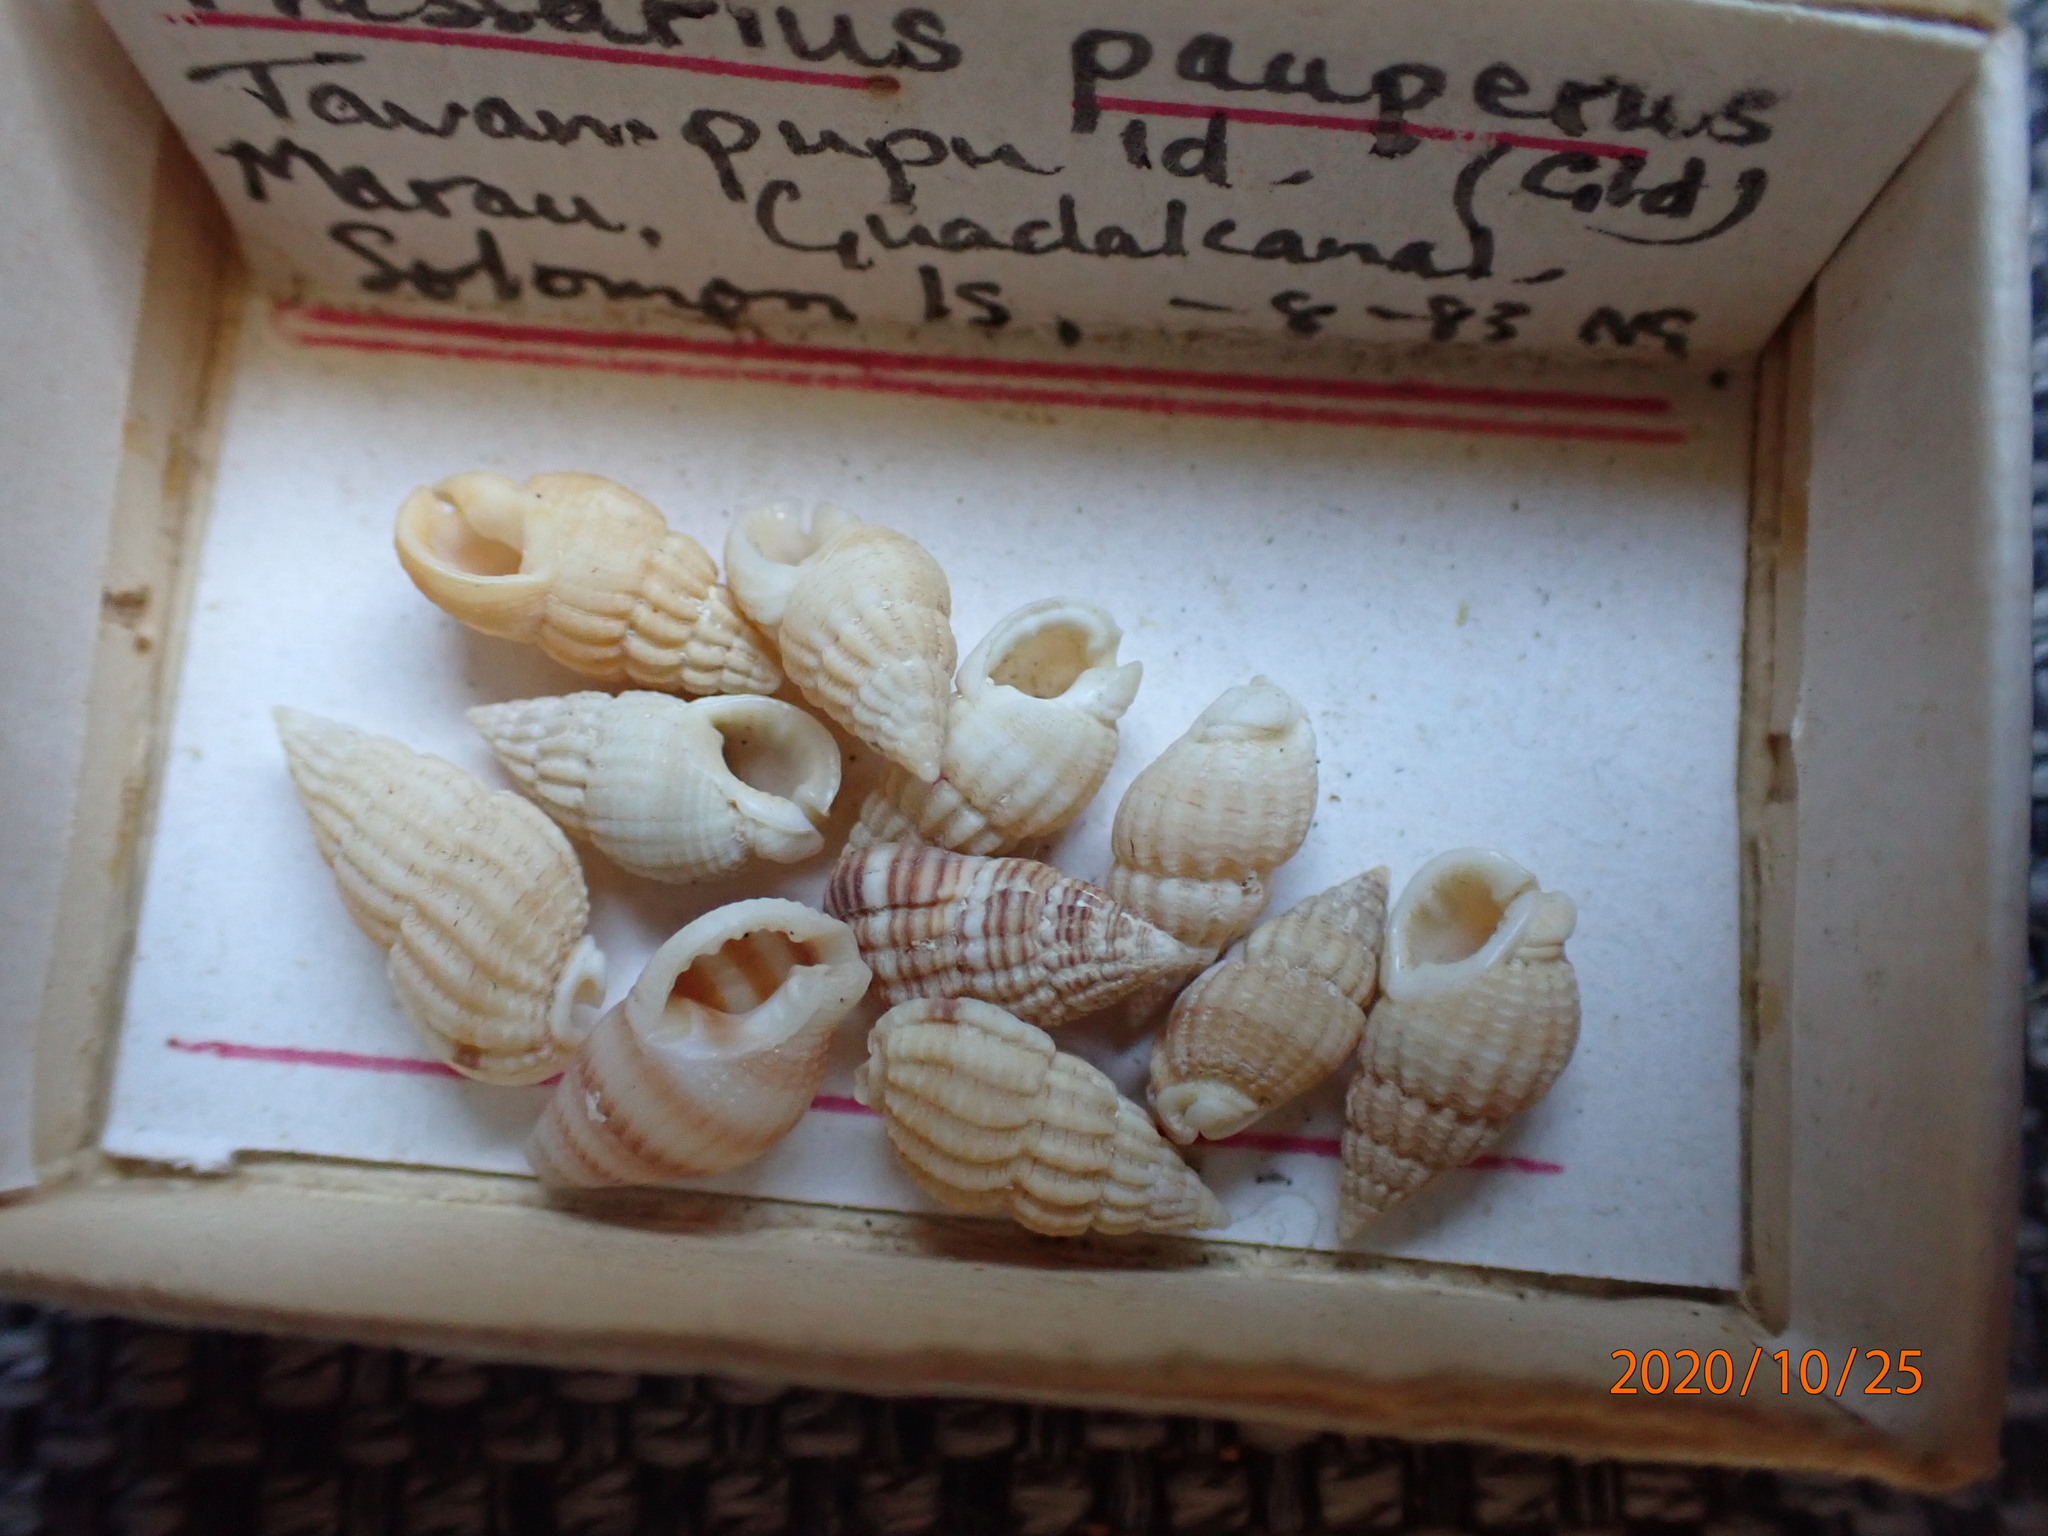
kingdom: Animalia
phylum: Mollusca
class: Gastropoda
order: Neogastropoda
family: Nassariidae
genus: Reticunassa
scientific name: Reticunassa paupera
